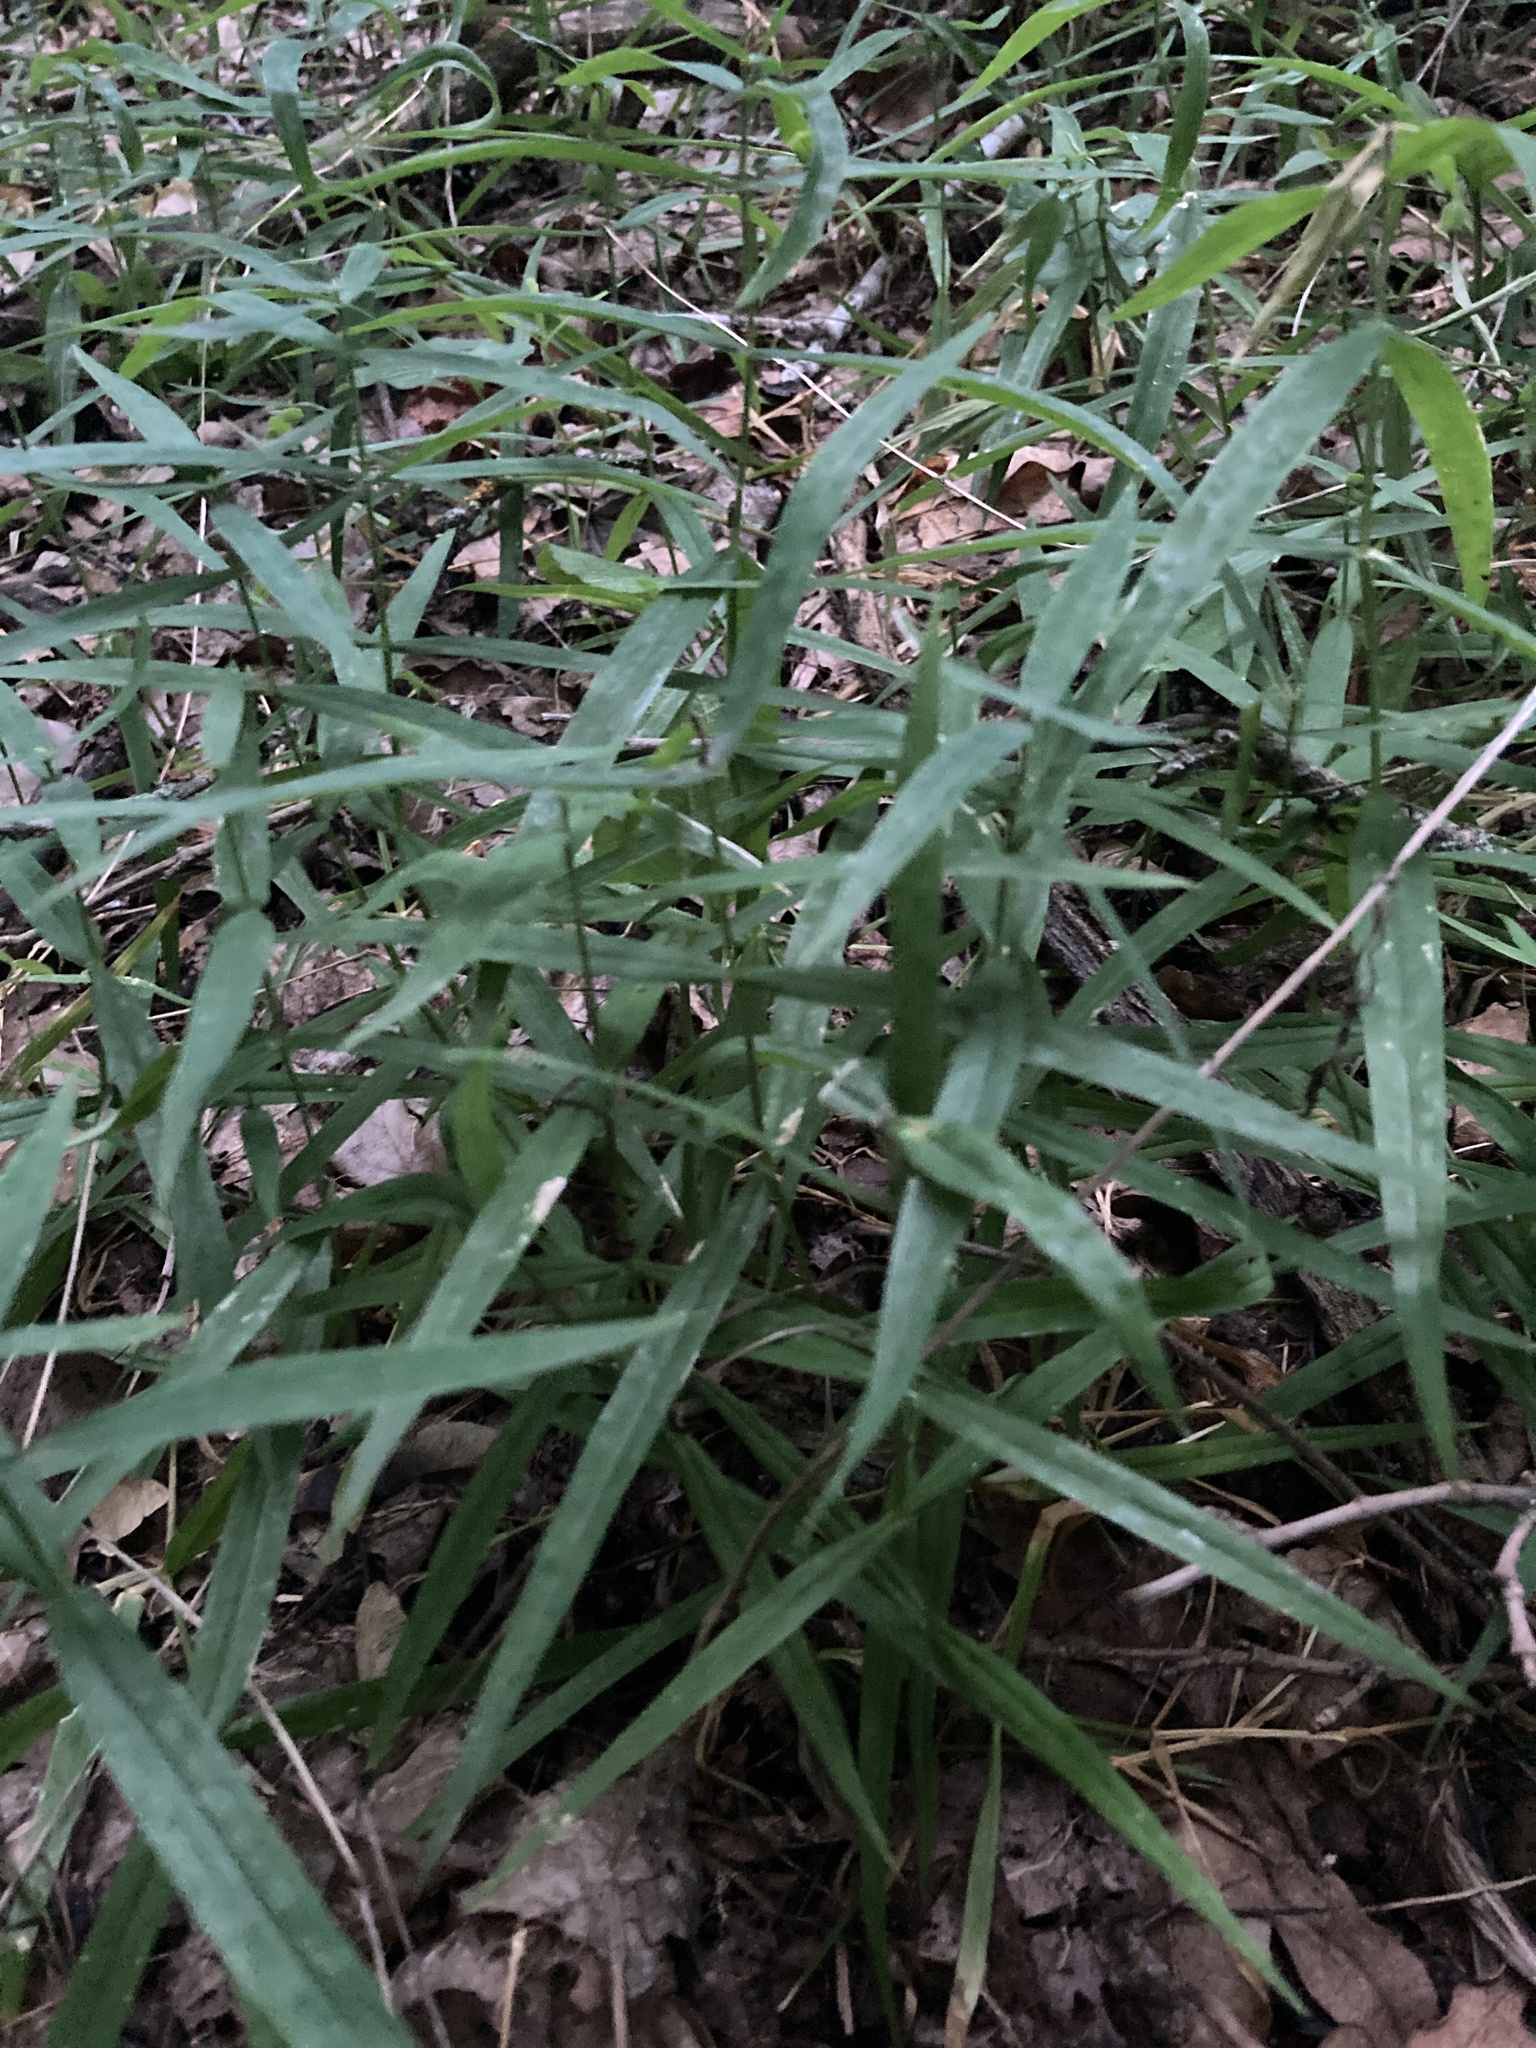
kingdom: Plantae
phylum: Tracheophyta
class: Magnoliopsida
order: Caryophyllales
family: Caryophyllaceae
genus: Rabelera
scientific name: Rabelera holostea
